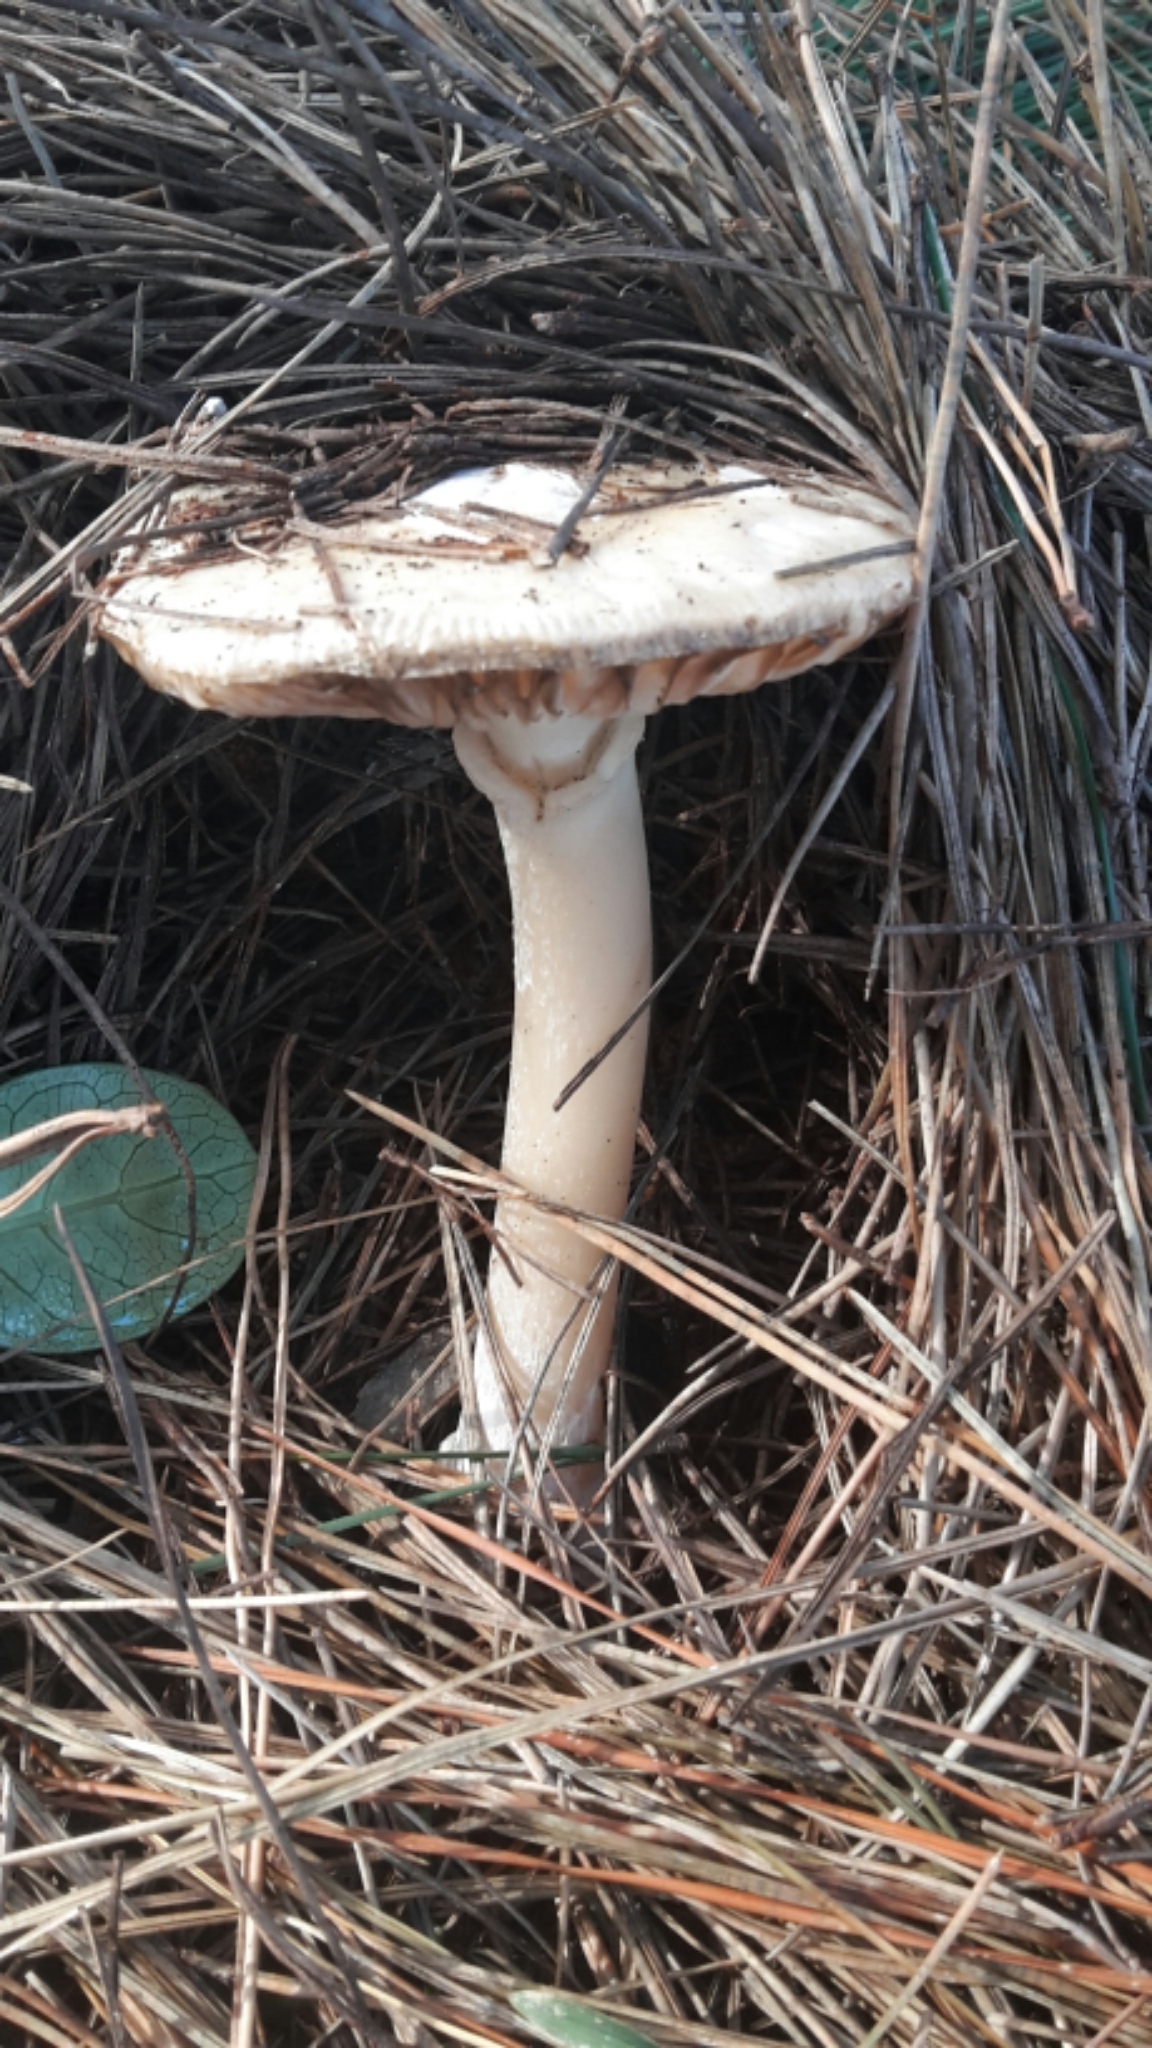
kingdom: Fungi
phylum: Basidiomycota
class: Agaricomycetes
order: Agaricales
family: Pluteaceae
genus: Volvopluteus
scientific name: Volvopluteus gloiocephalus
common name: Stubble rosegill
